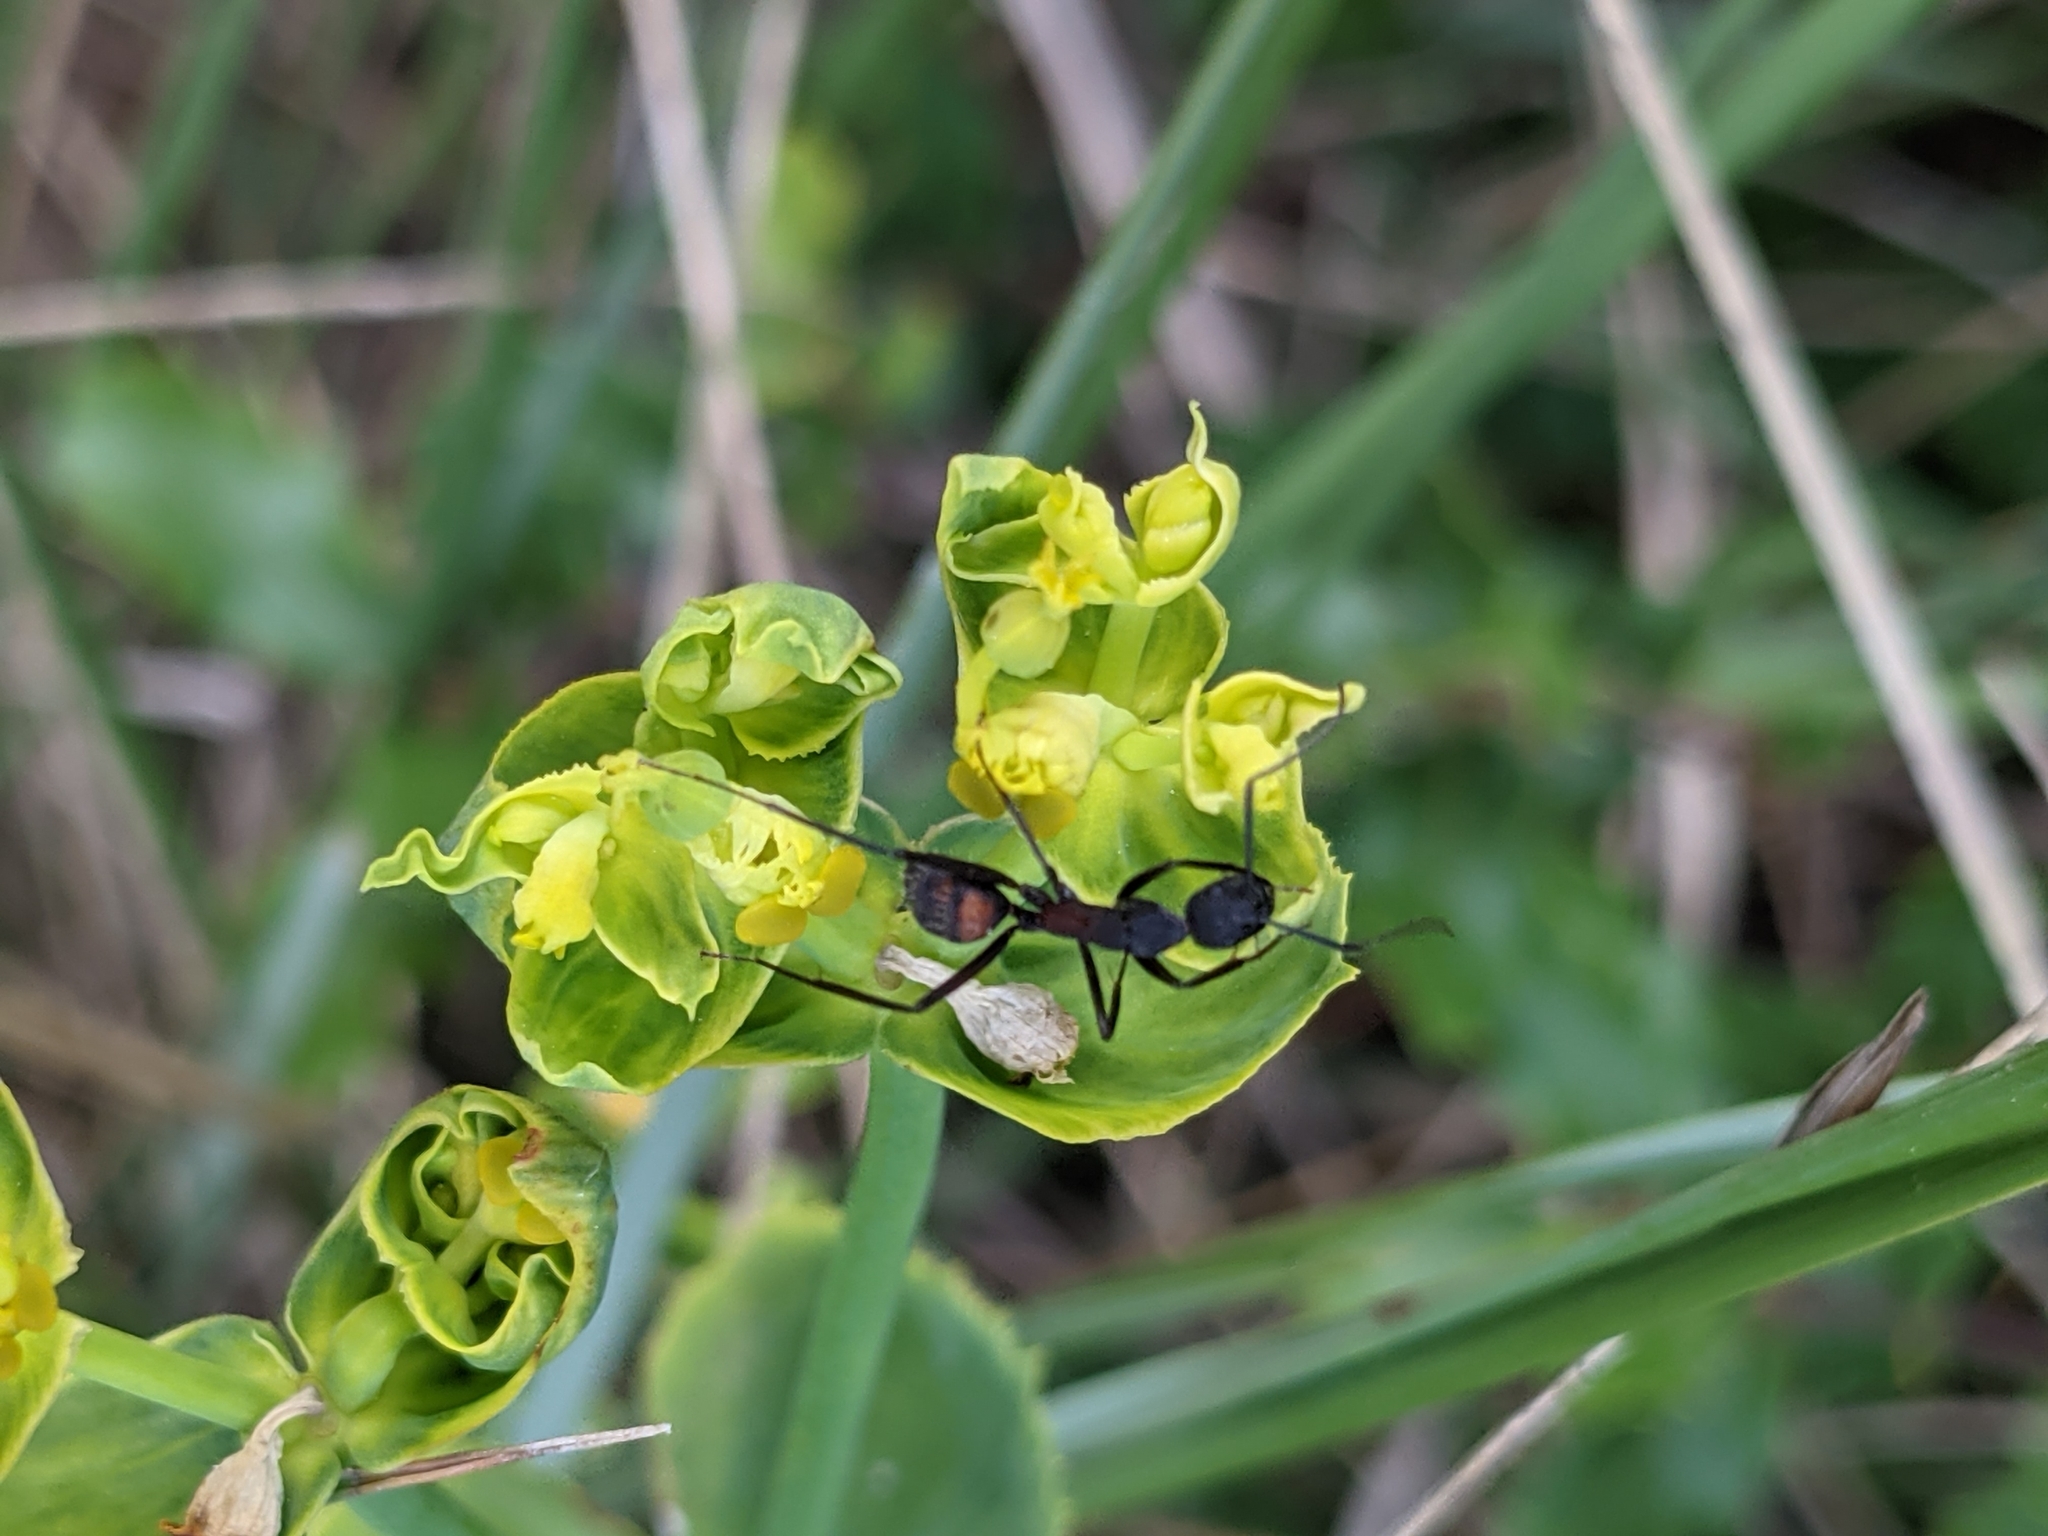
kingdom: Animalia
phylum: Arthropoda
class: Insecta
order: Hymenoptera
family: Formicidae
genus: Camponotus
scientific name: Camponotus cruentatus
